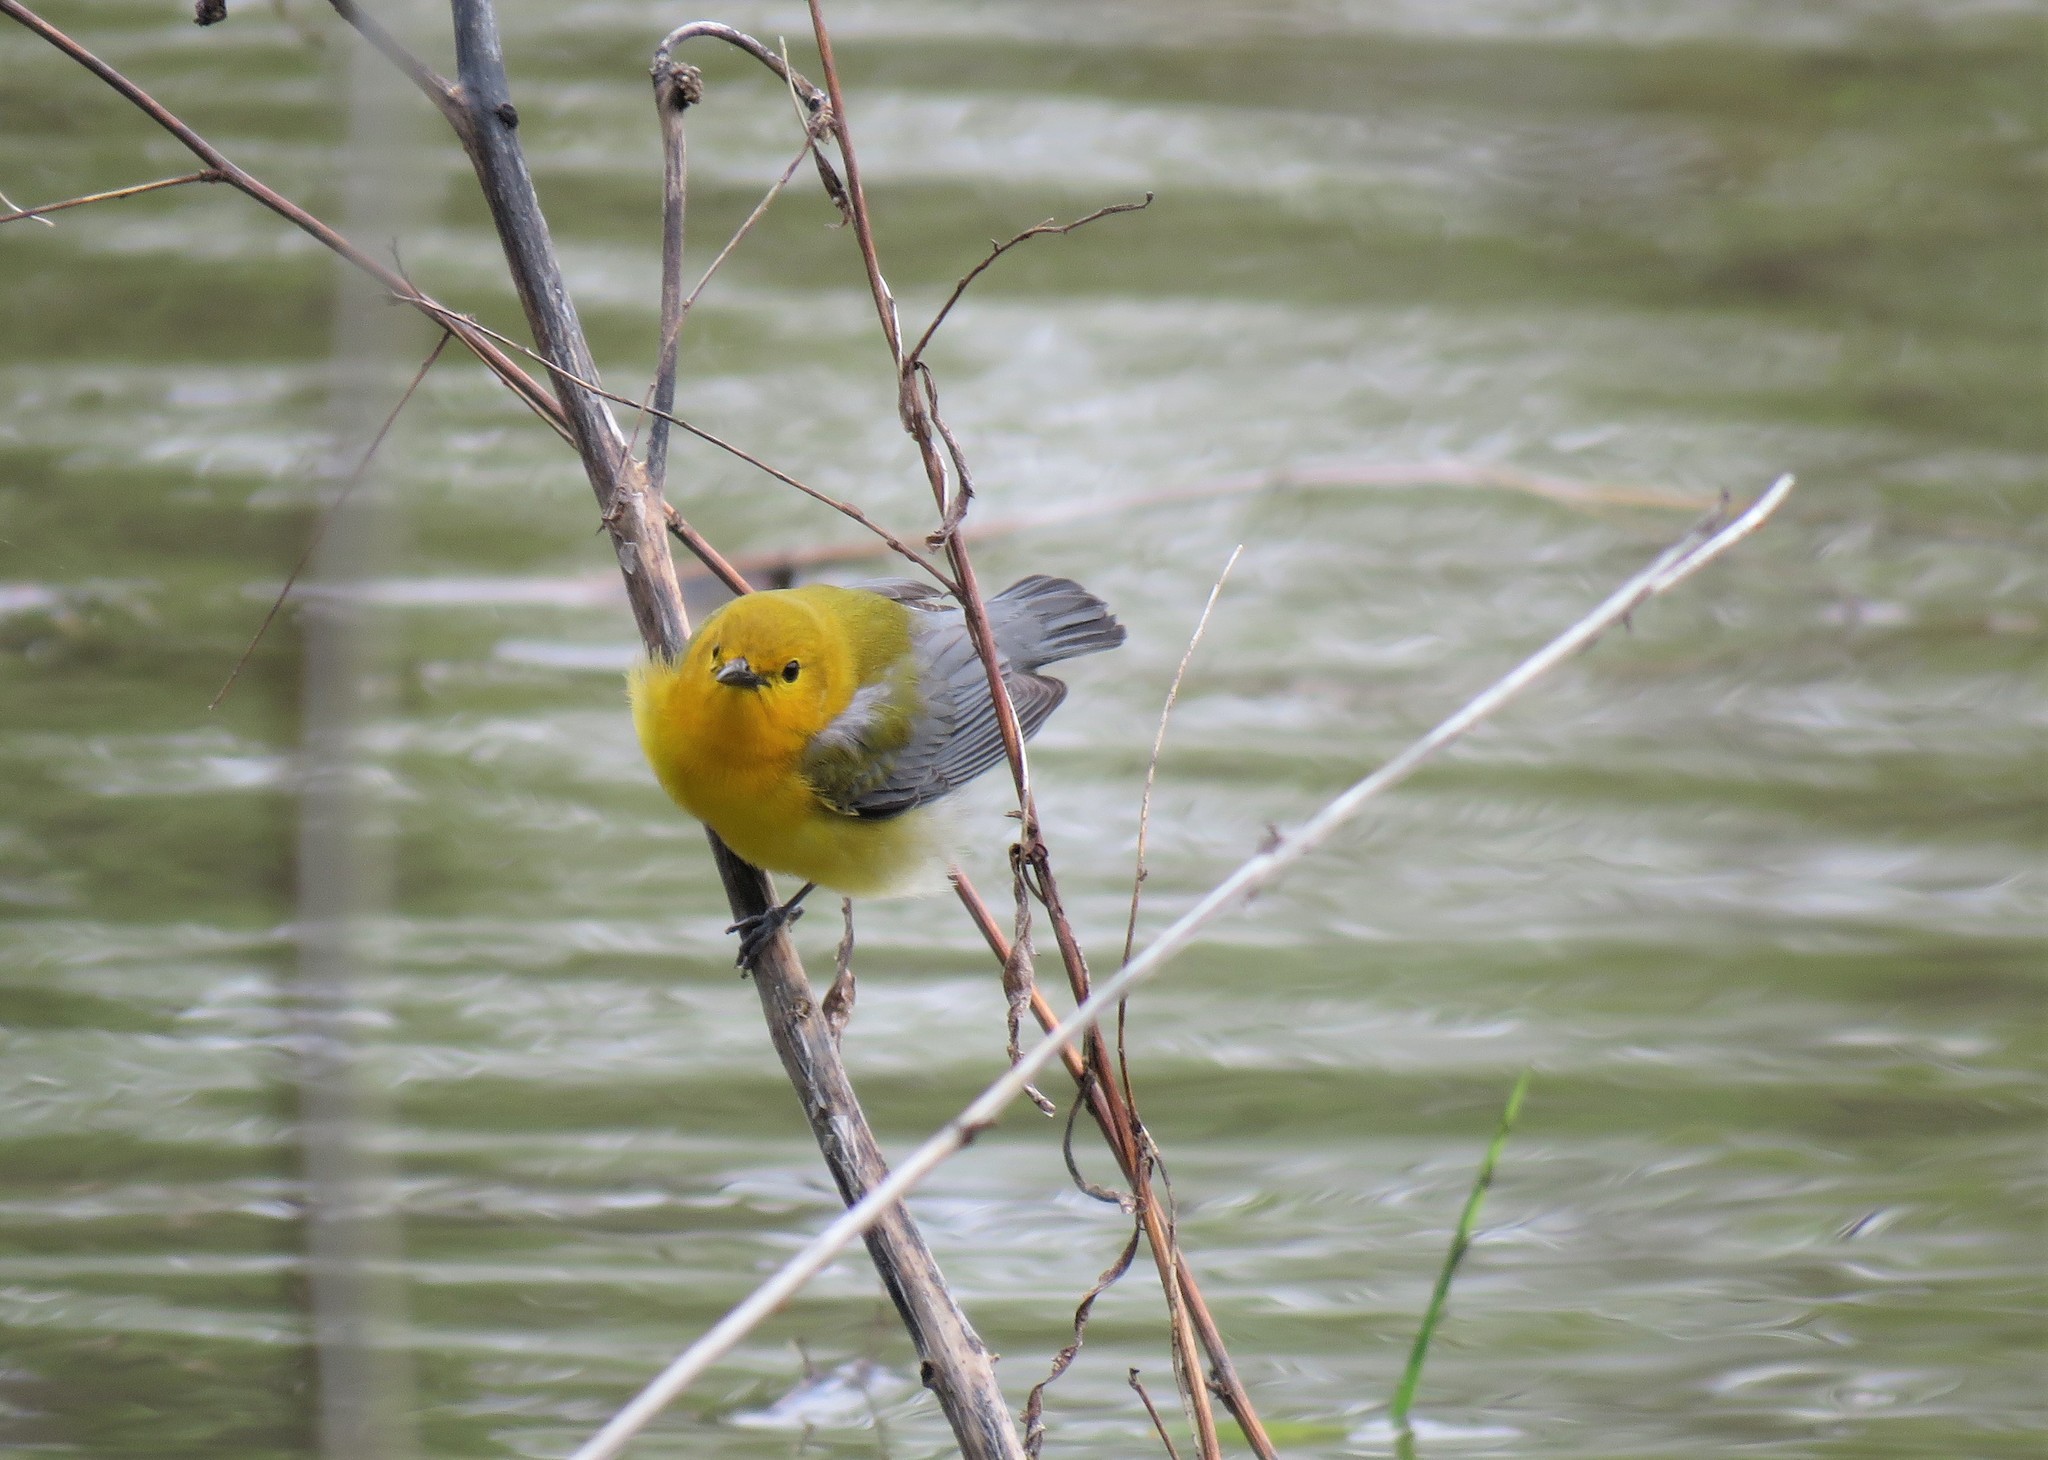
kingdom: Animalia
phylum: Chordata
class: Aves
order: Passeriformes
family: Parulidae
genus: Protonotaria
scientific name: Protonotaria citrea
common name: Prothonotary warbler
